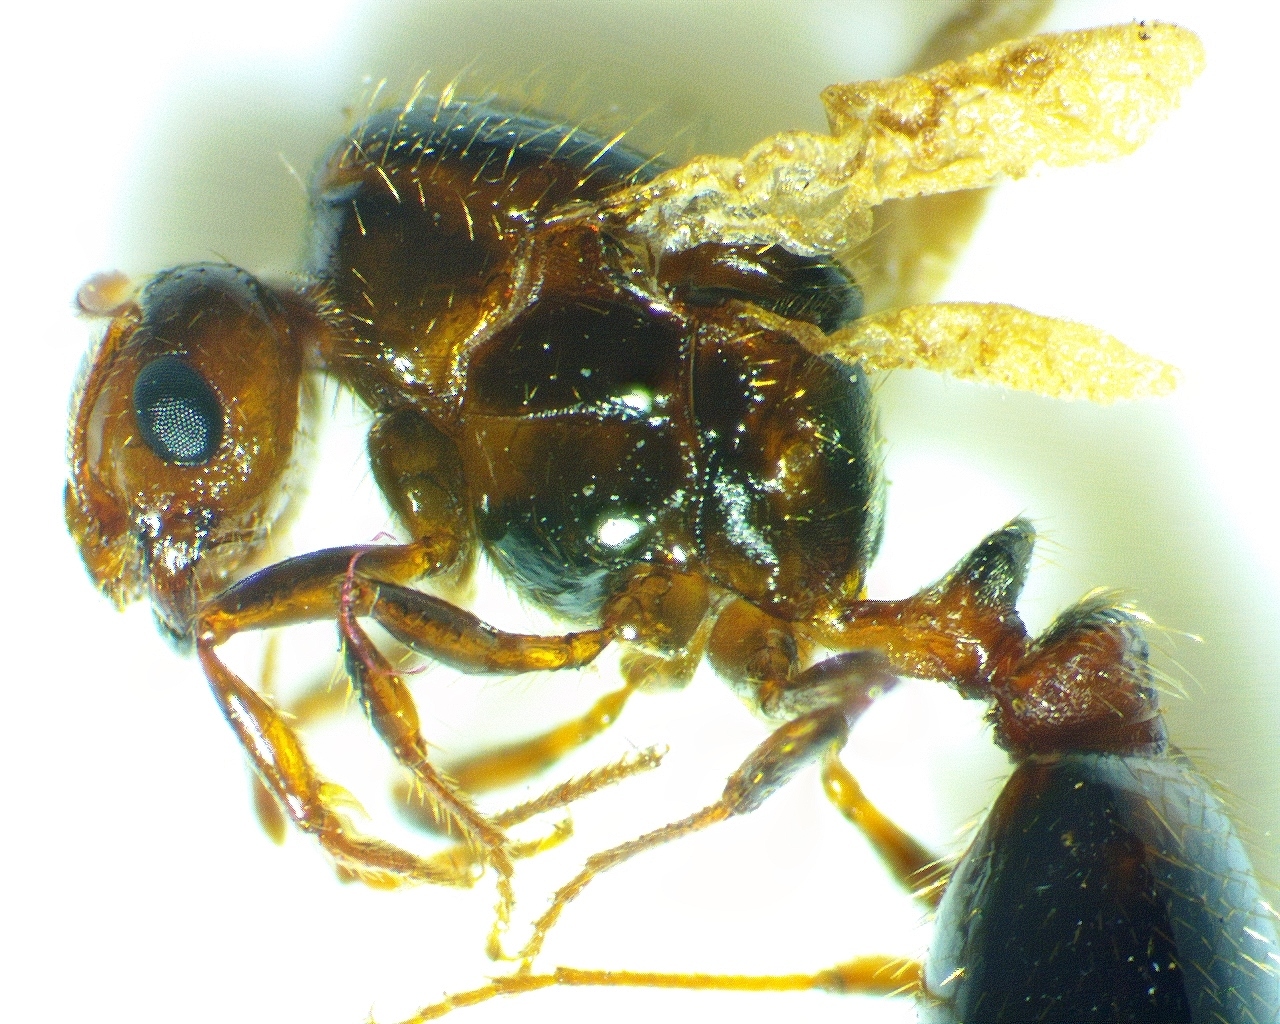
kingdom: Animalia
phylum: Arthropoda
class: Insecta
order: Hymenoptera
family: Formicidae
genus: Solenopsis
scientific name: Solenopsis invicta
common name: Red imported fire ant
